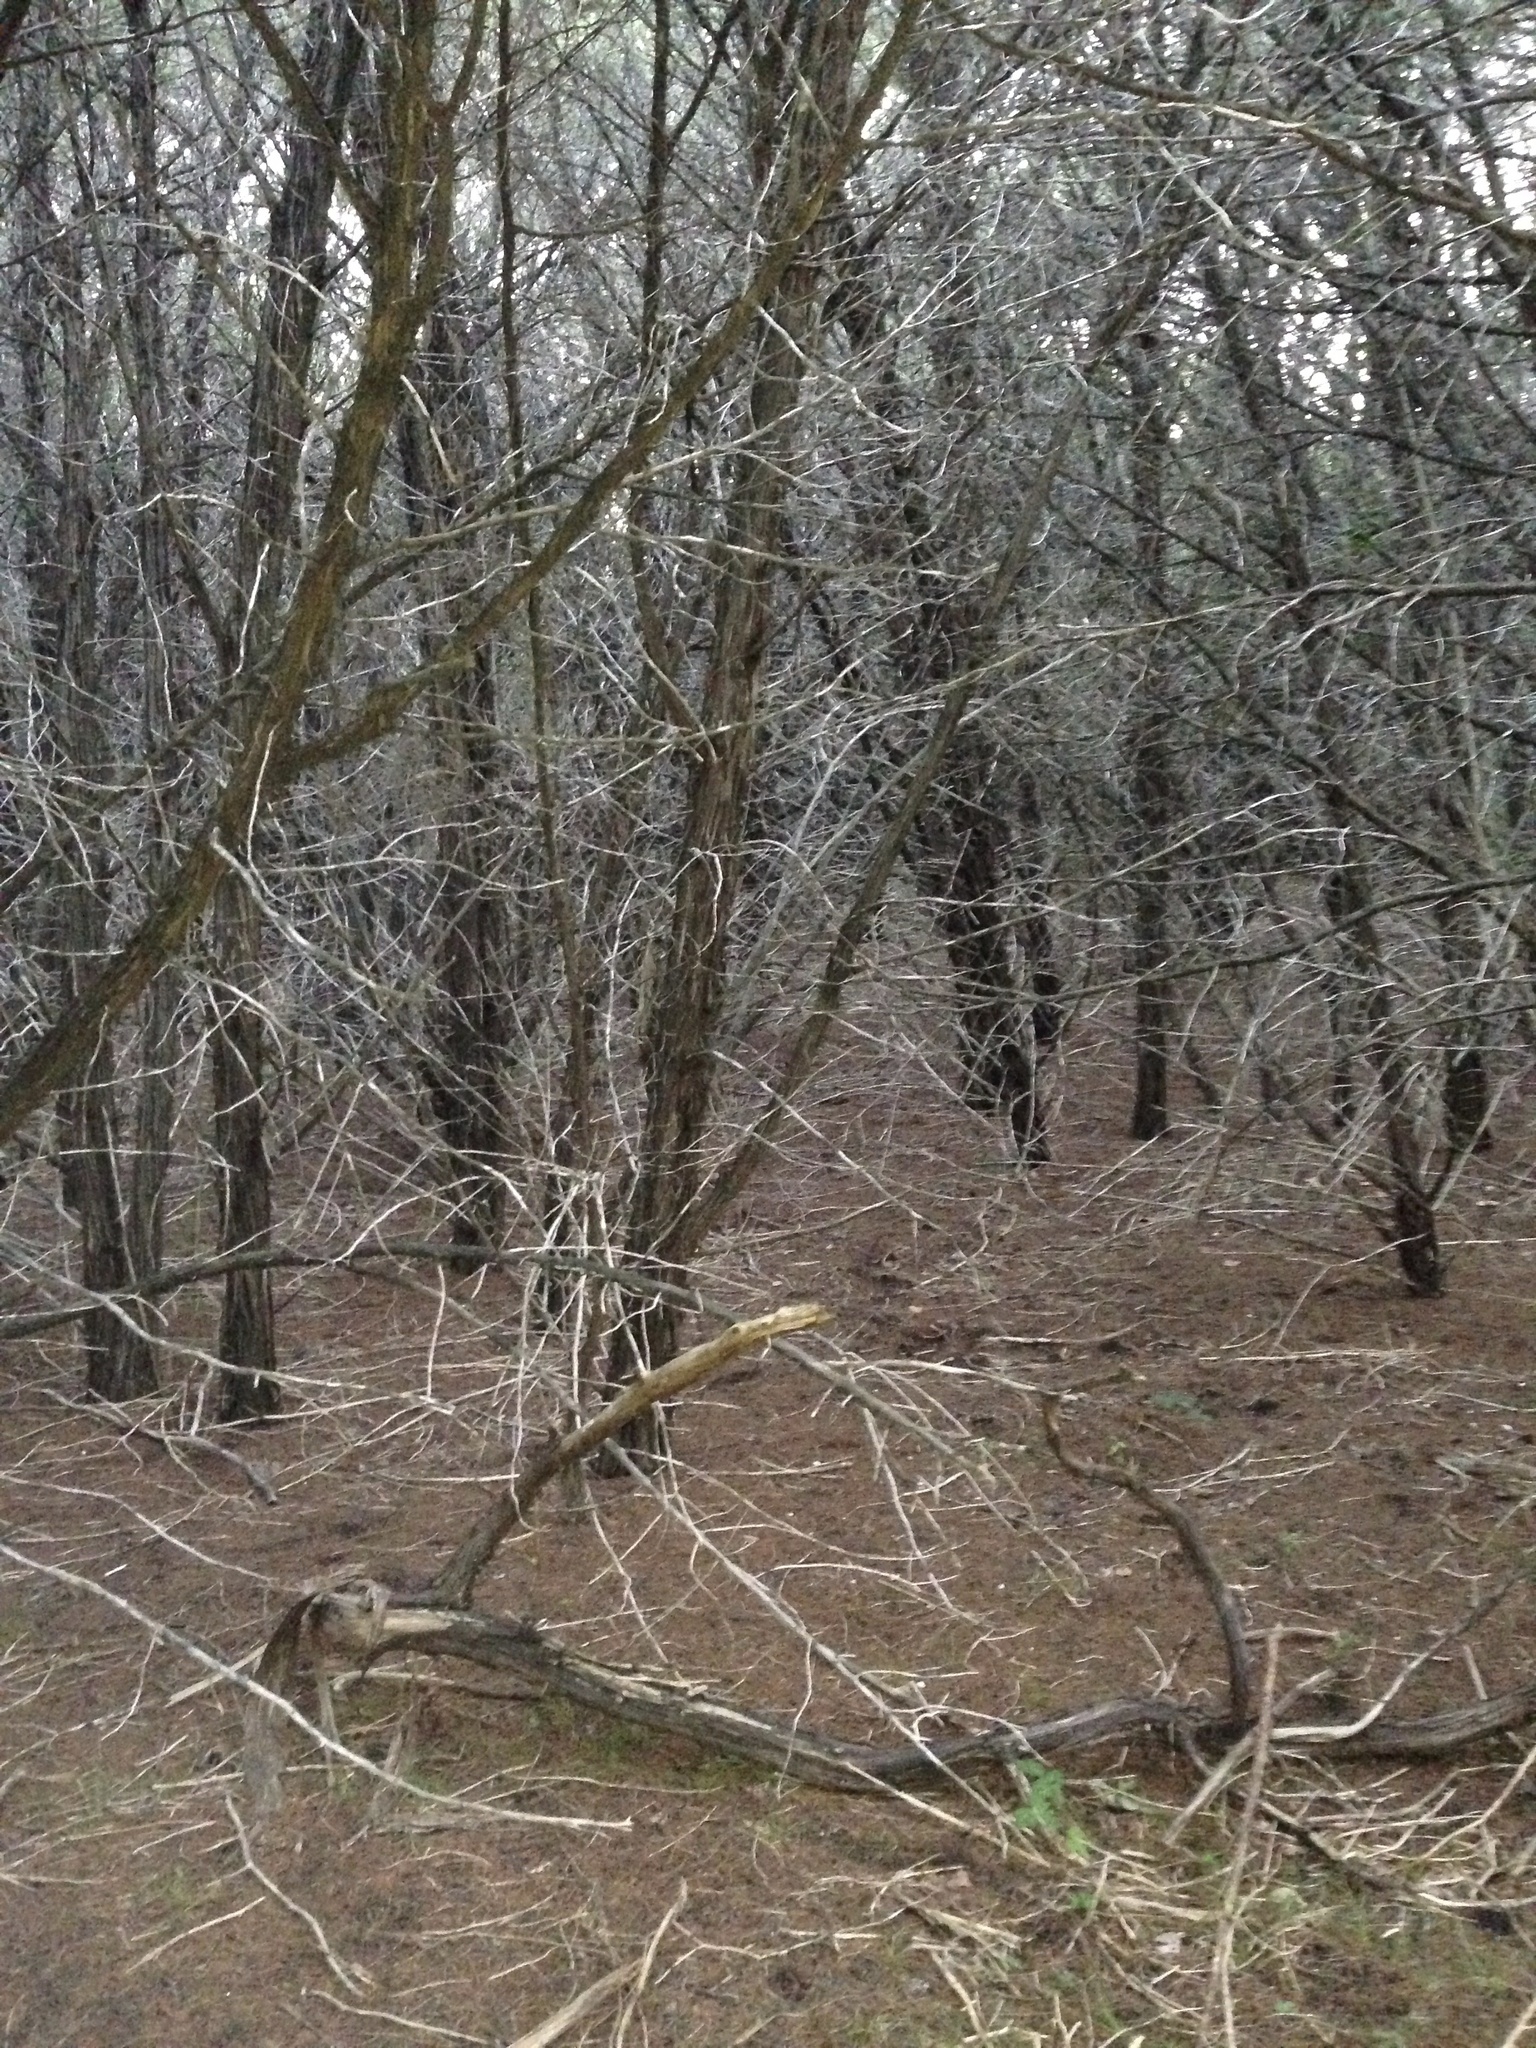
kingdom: Plantae
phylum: Tracheophyta
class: Pinopsida
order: Pinales
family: Cupressaceae
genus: Juniperus
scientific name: Juniperus ashei
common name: Mexican juniper
